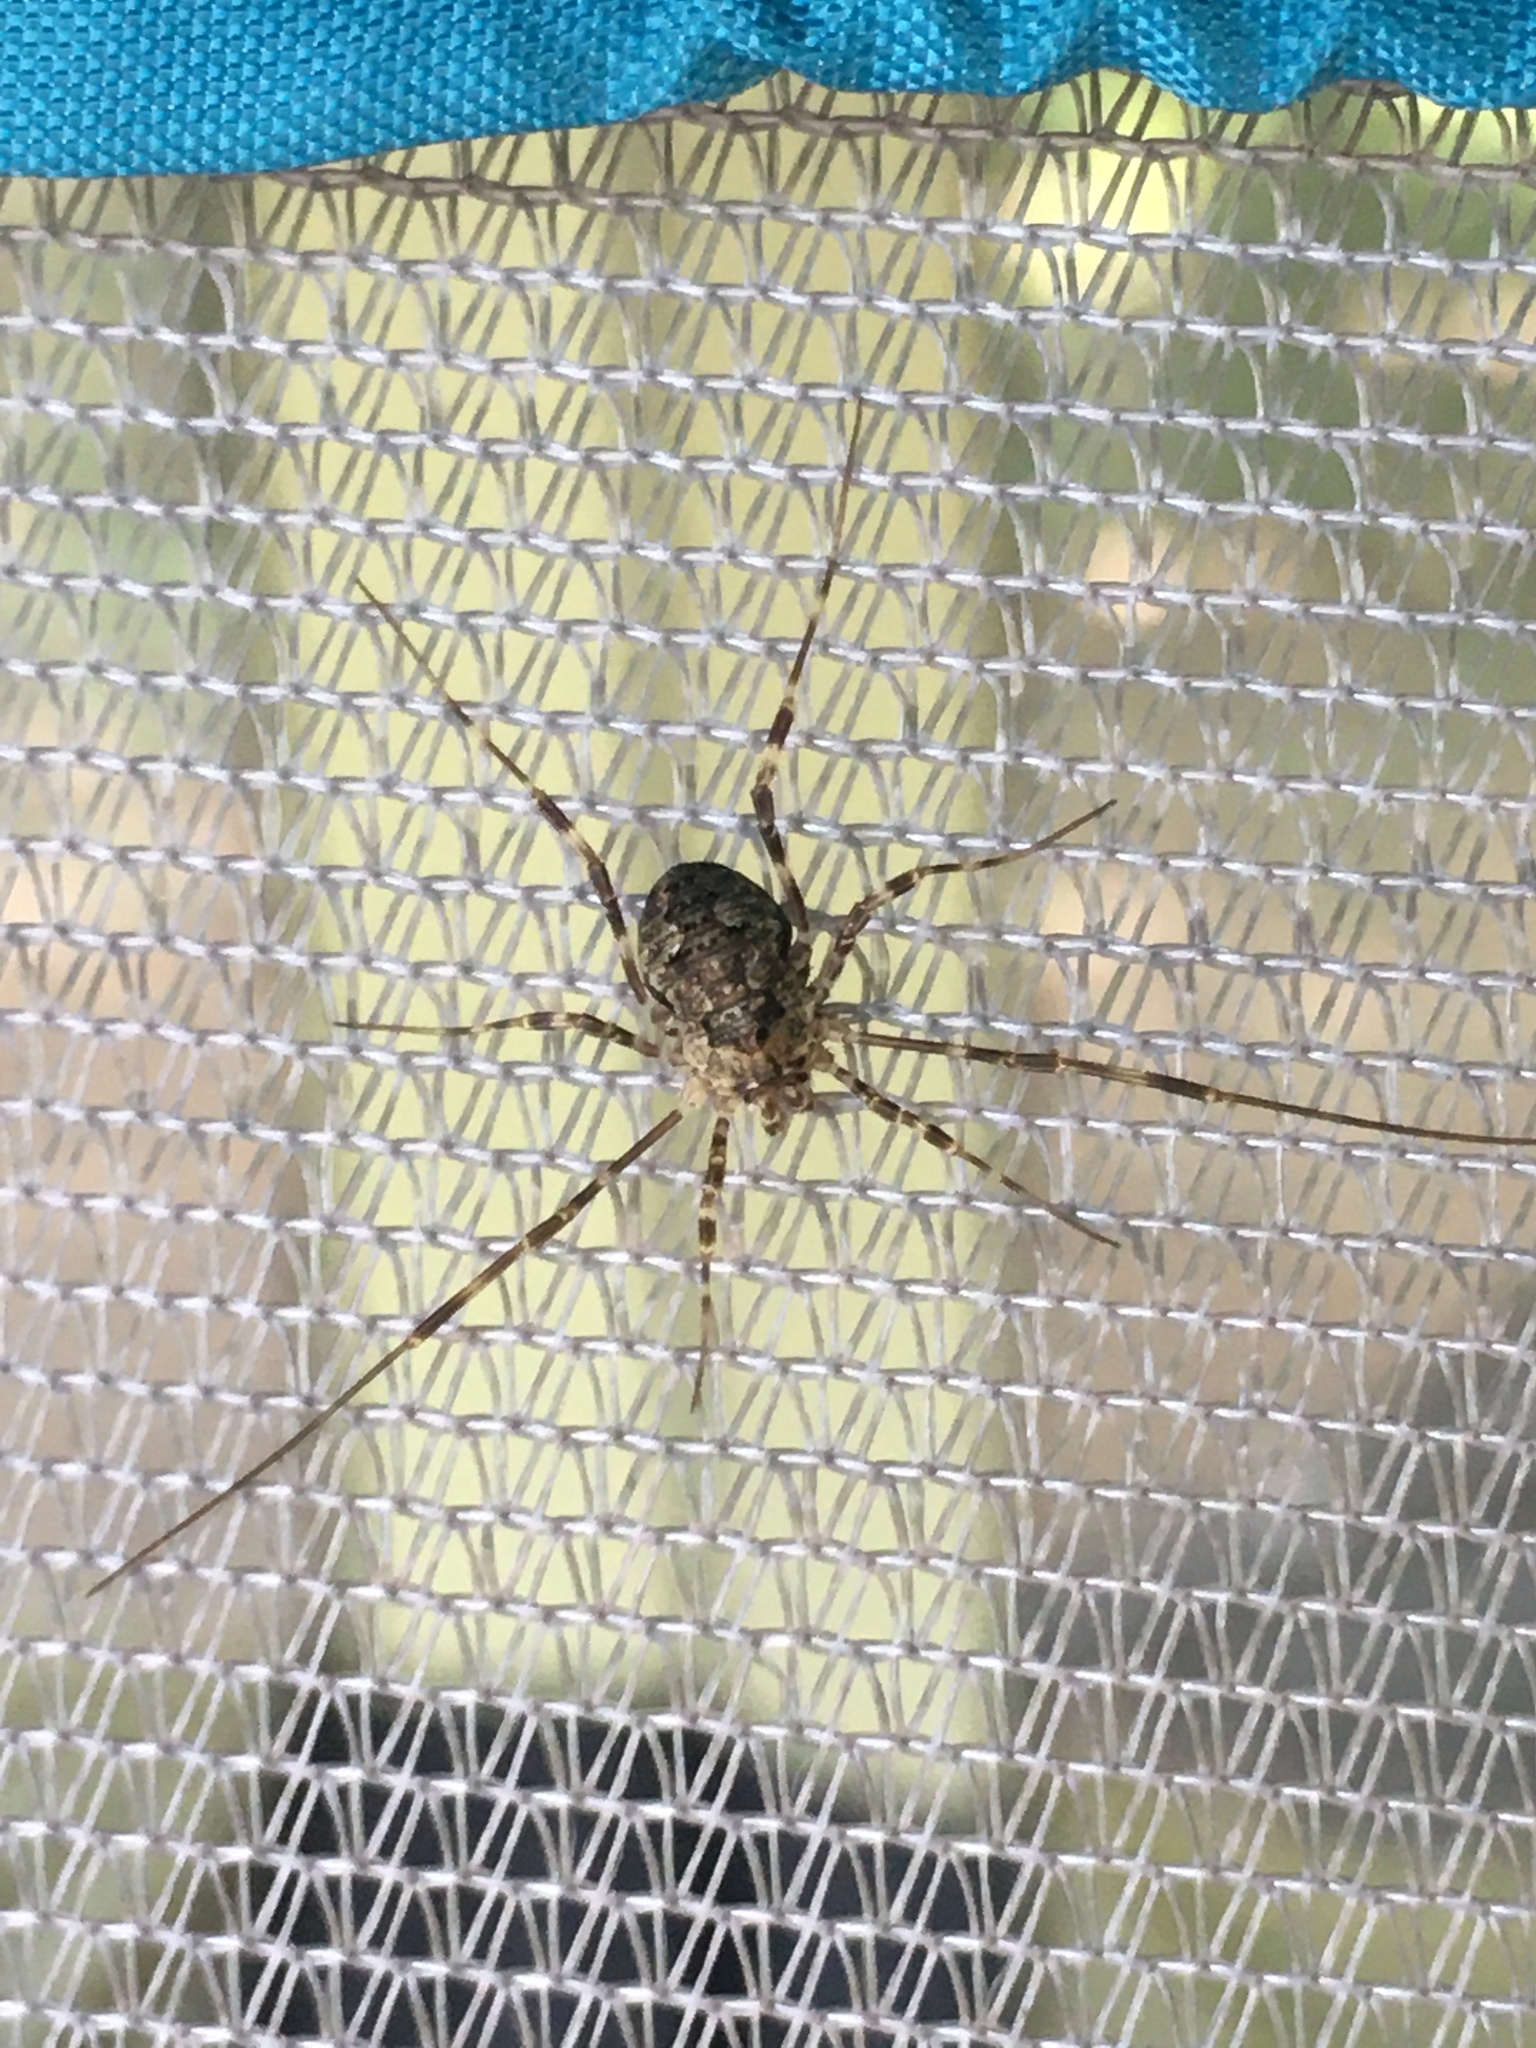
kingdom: Animalia
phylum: Arthropoda
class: Arachnida
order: Opiliones
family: Phalangiidae
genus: Odiellus
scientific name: Odiellus pictus
